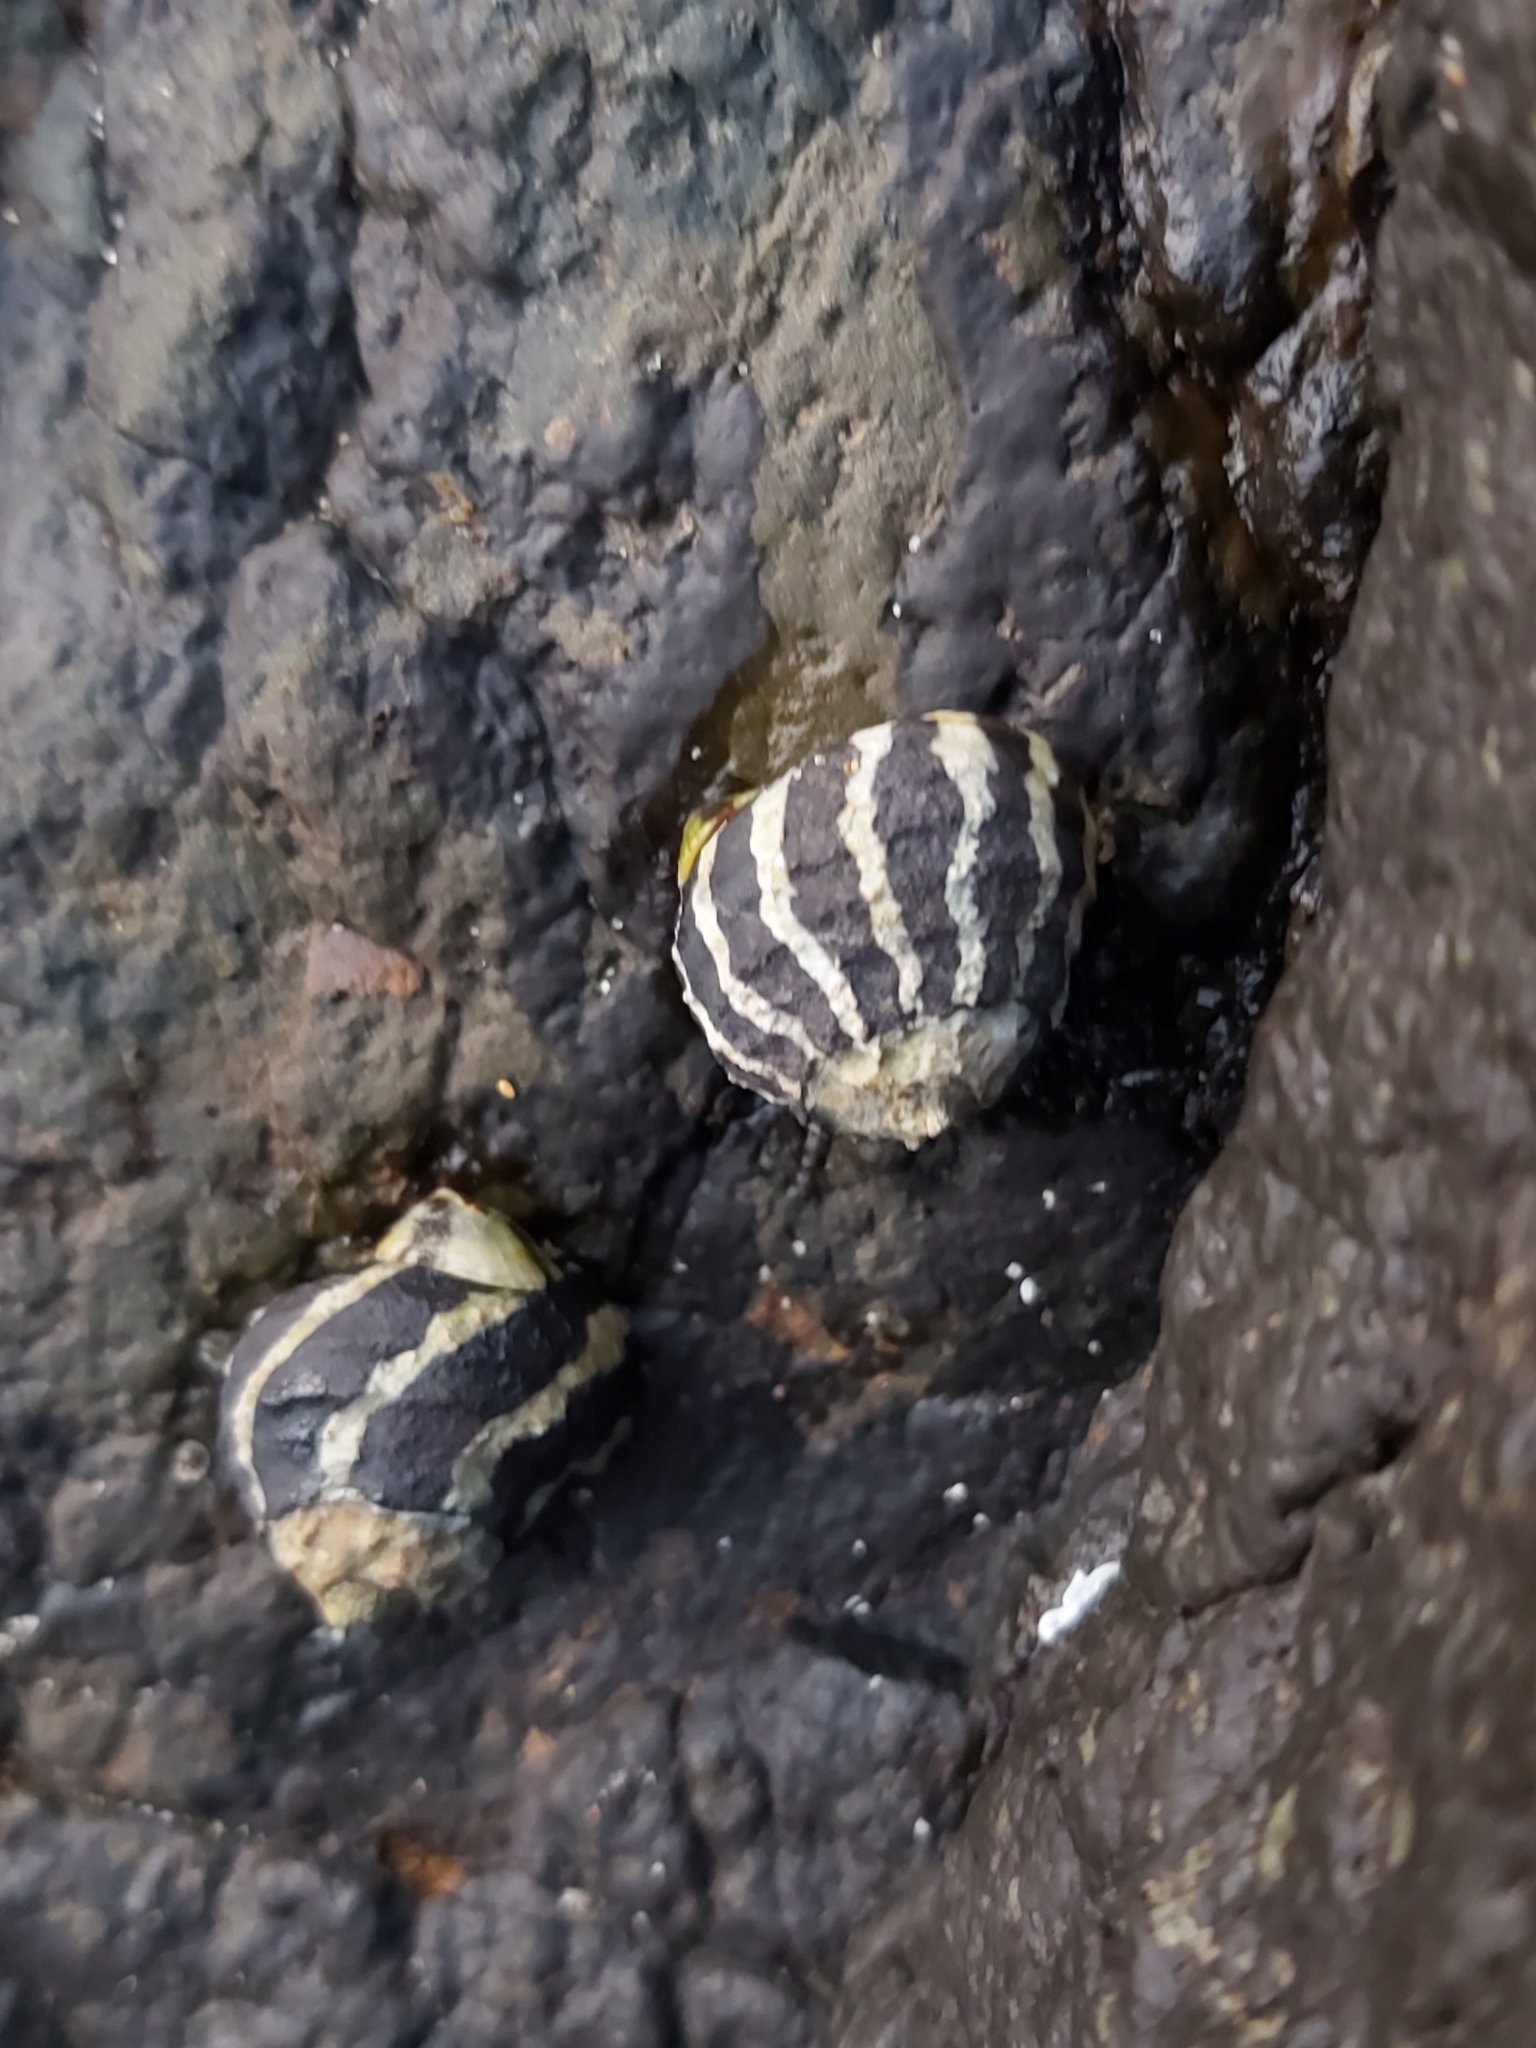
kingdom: Animalia
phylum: Mollusca
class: Gastropoda
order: Trochida
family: Trochidae
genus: Austrocochlea
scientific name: Austrocochlea porcata
